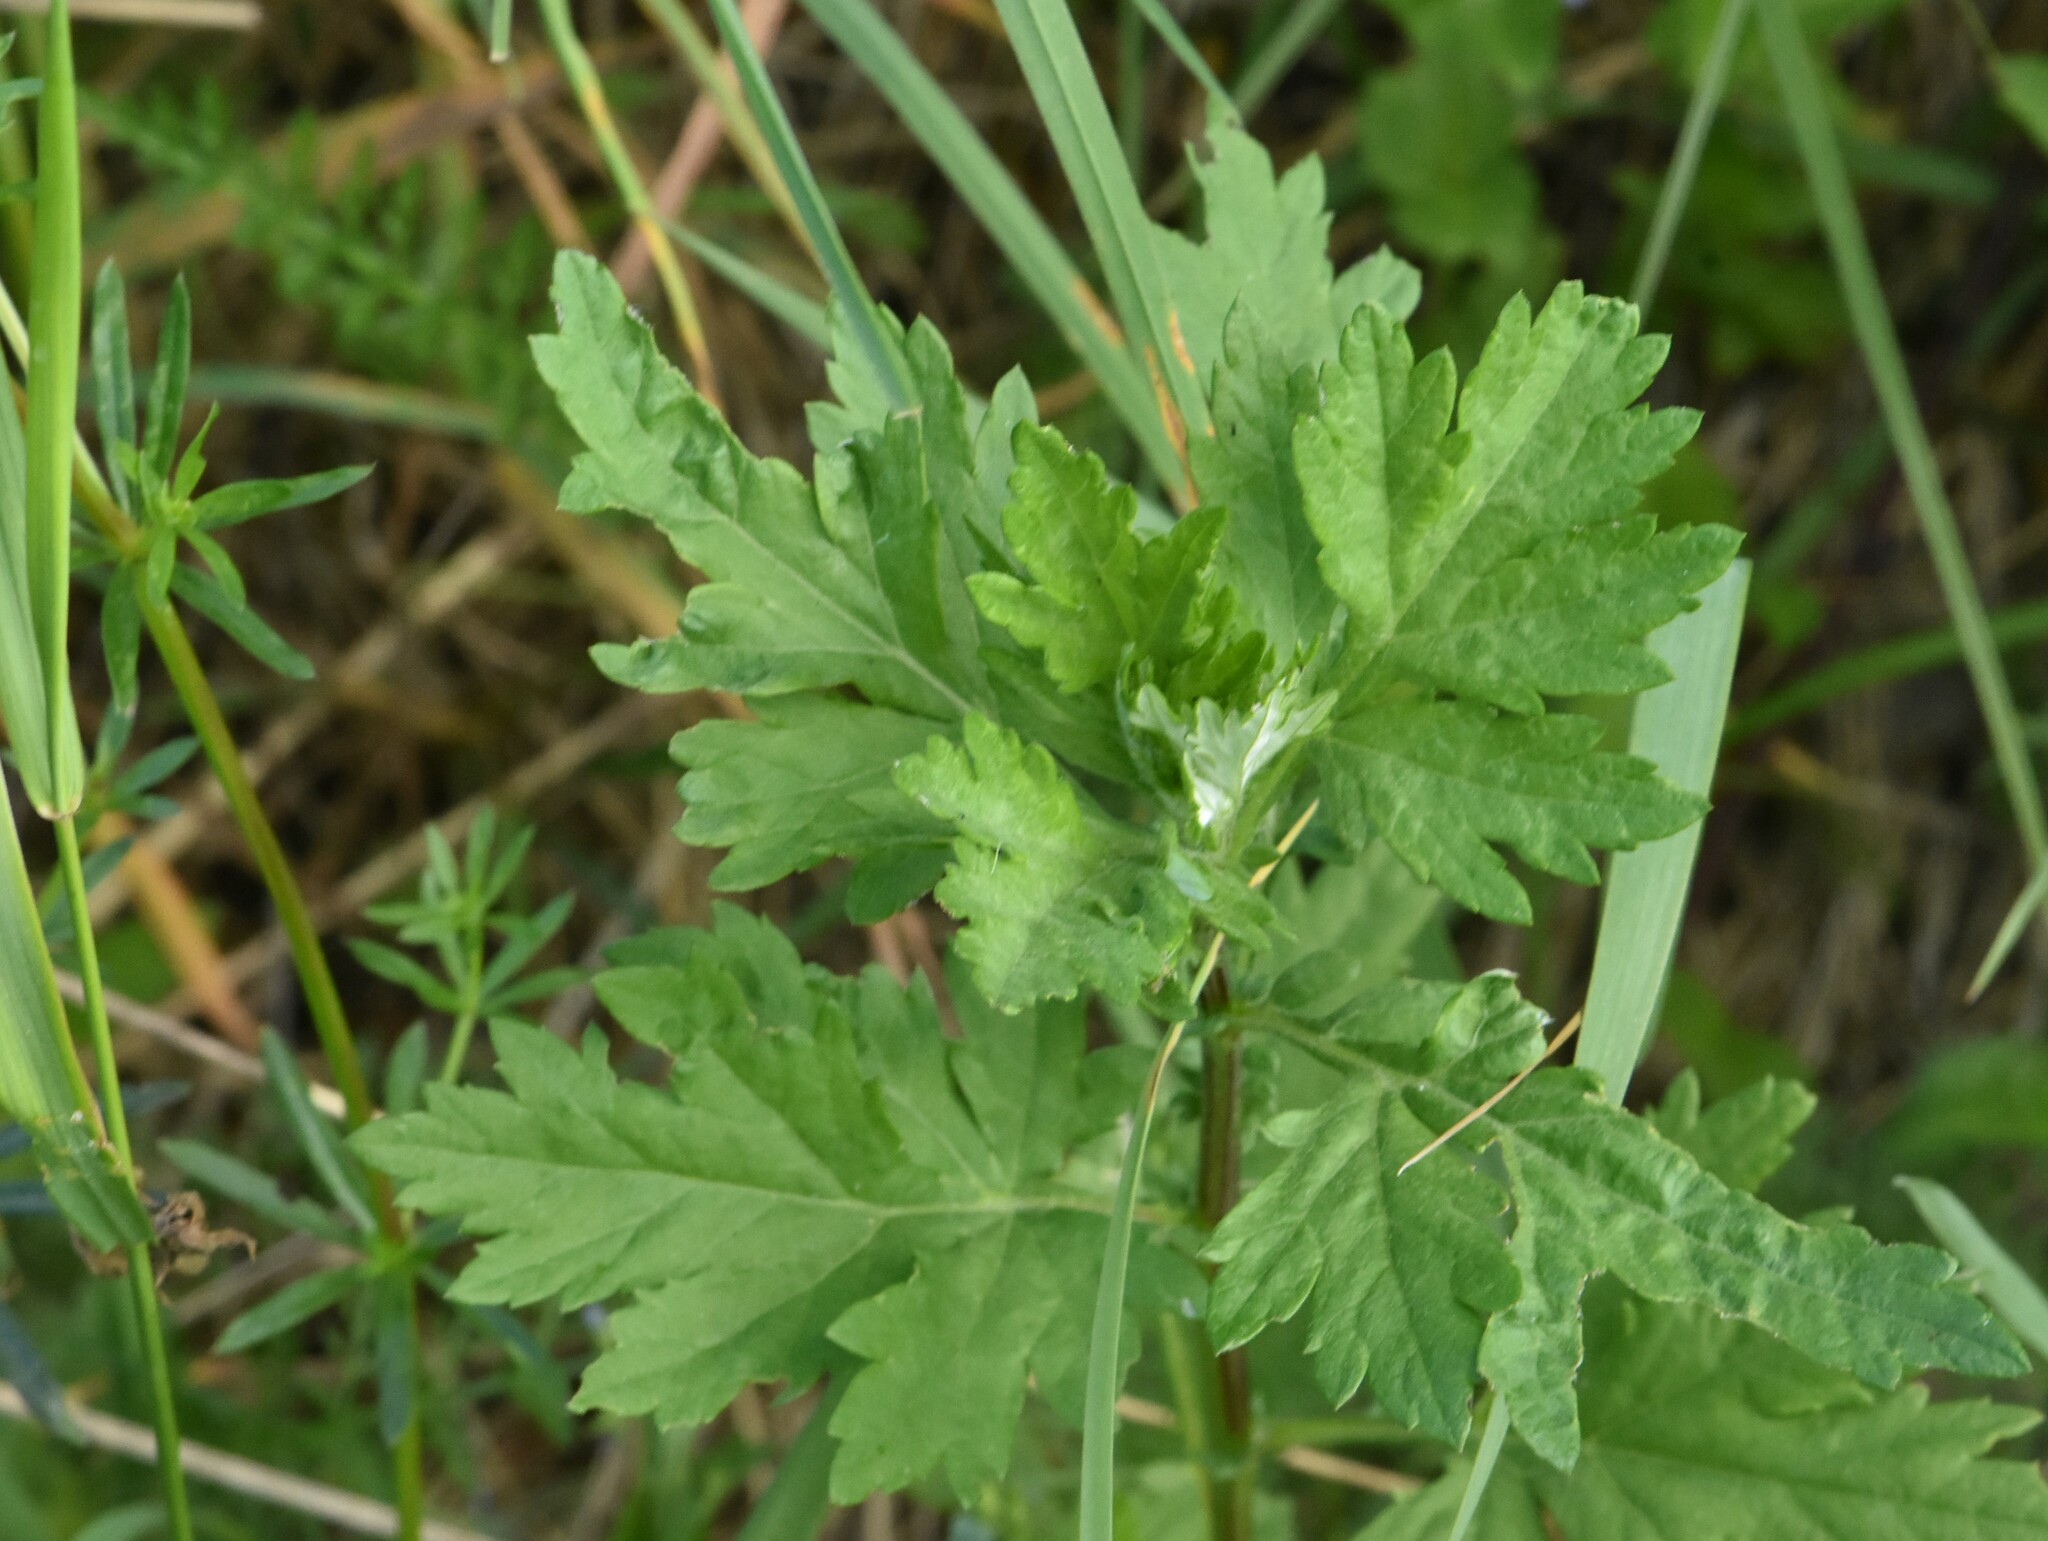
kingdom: Plantae
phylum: Tracheophyta
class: Magnoliopsida
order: Asterales
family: Asteraceae
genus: Artemisia
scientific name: Artemisia vulgaris
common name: Mugwort
